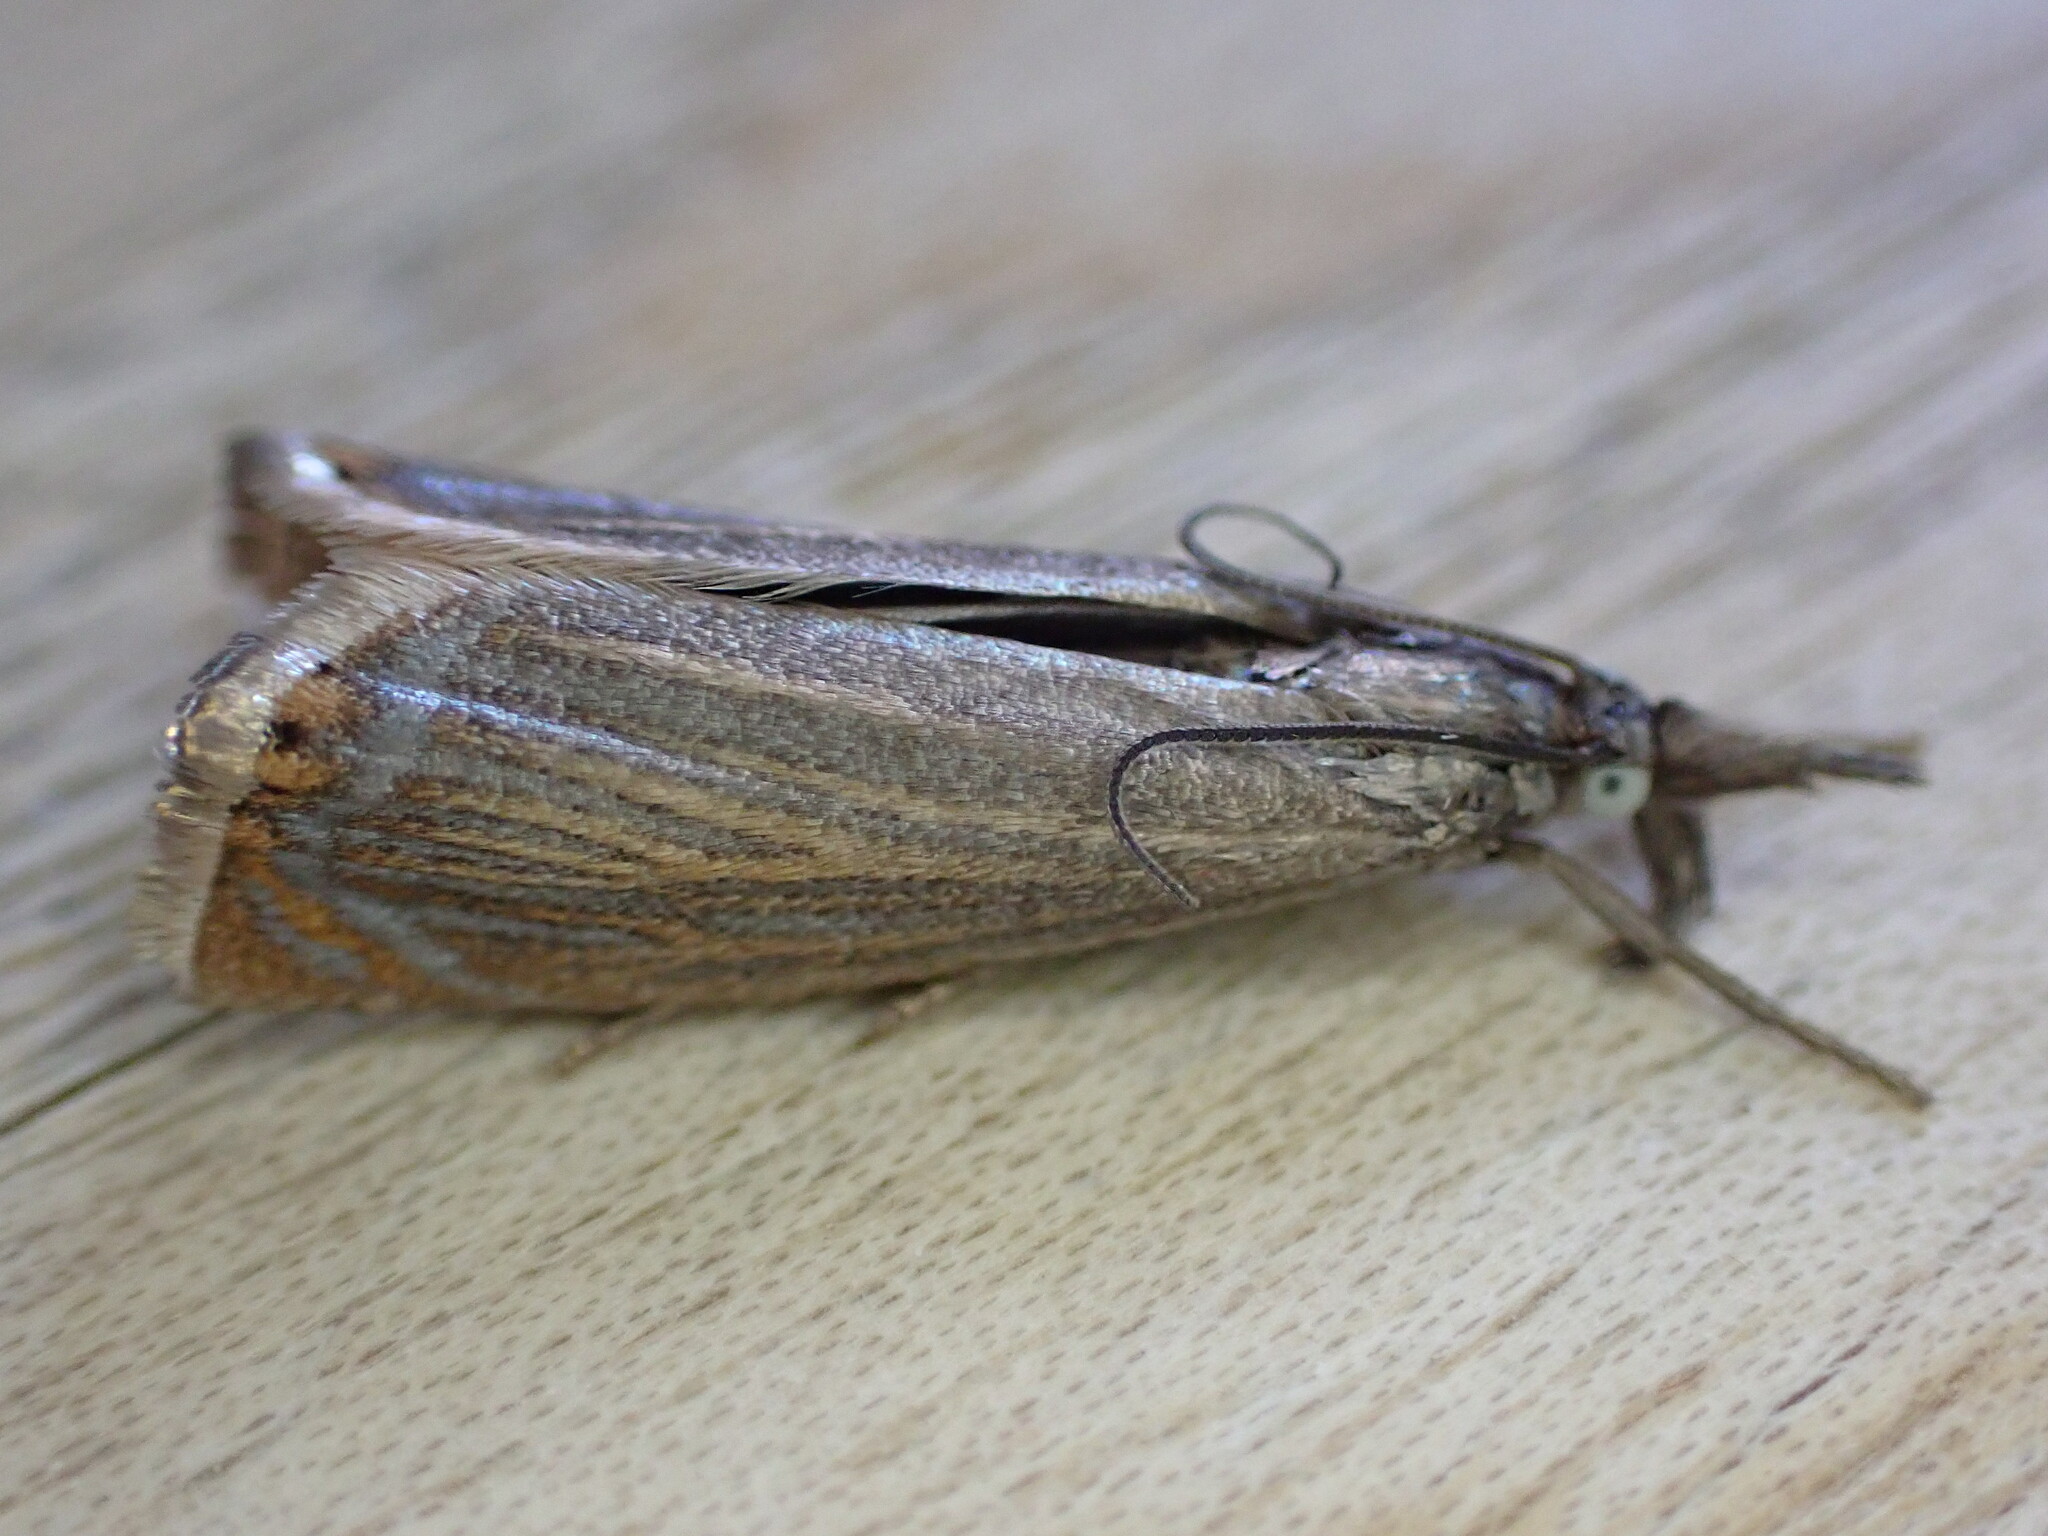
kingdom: Animalia
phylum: Arthropoda
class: Insecta
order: Lepidoptera
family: Crambidae
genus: Chrysoteuchia
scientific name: Chrysoteuchia culmella
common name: Garden grass-veneer
